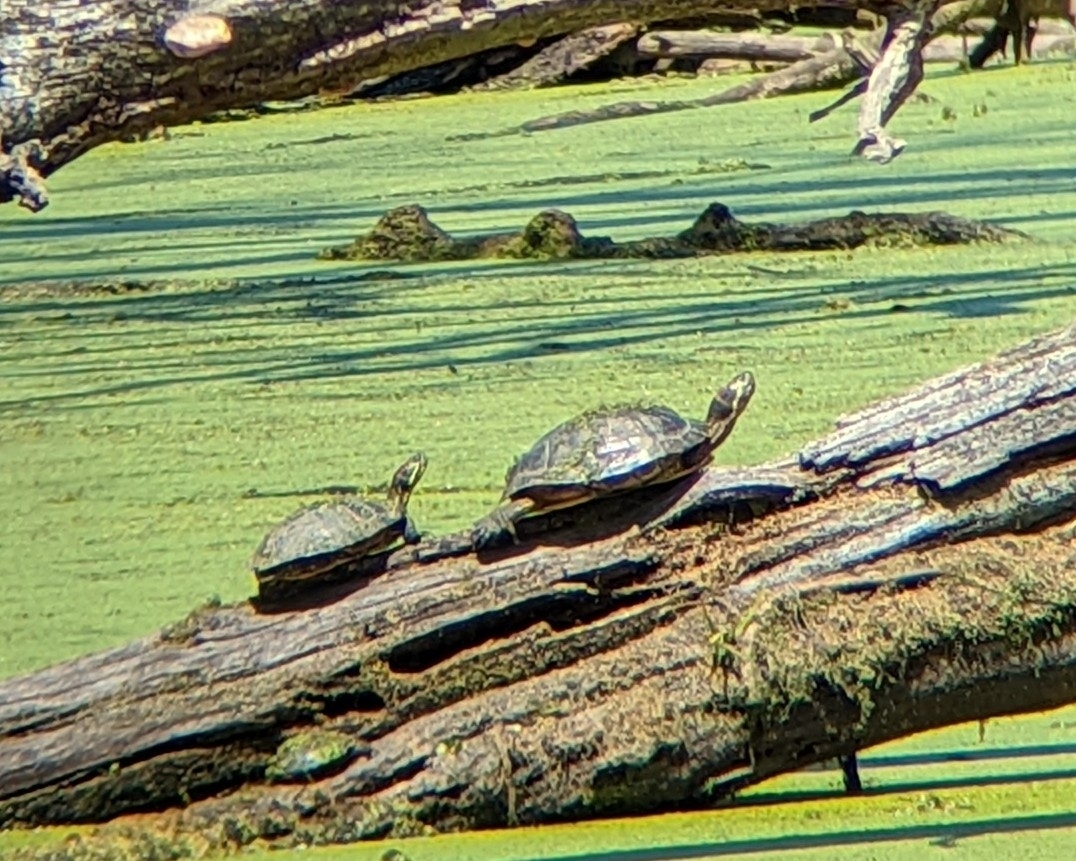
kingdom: Animalia
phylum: Chordata
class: Testudines
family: Emydidae
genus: Trachemys
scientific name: Trachemys scripta
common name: Slider
